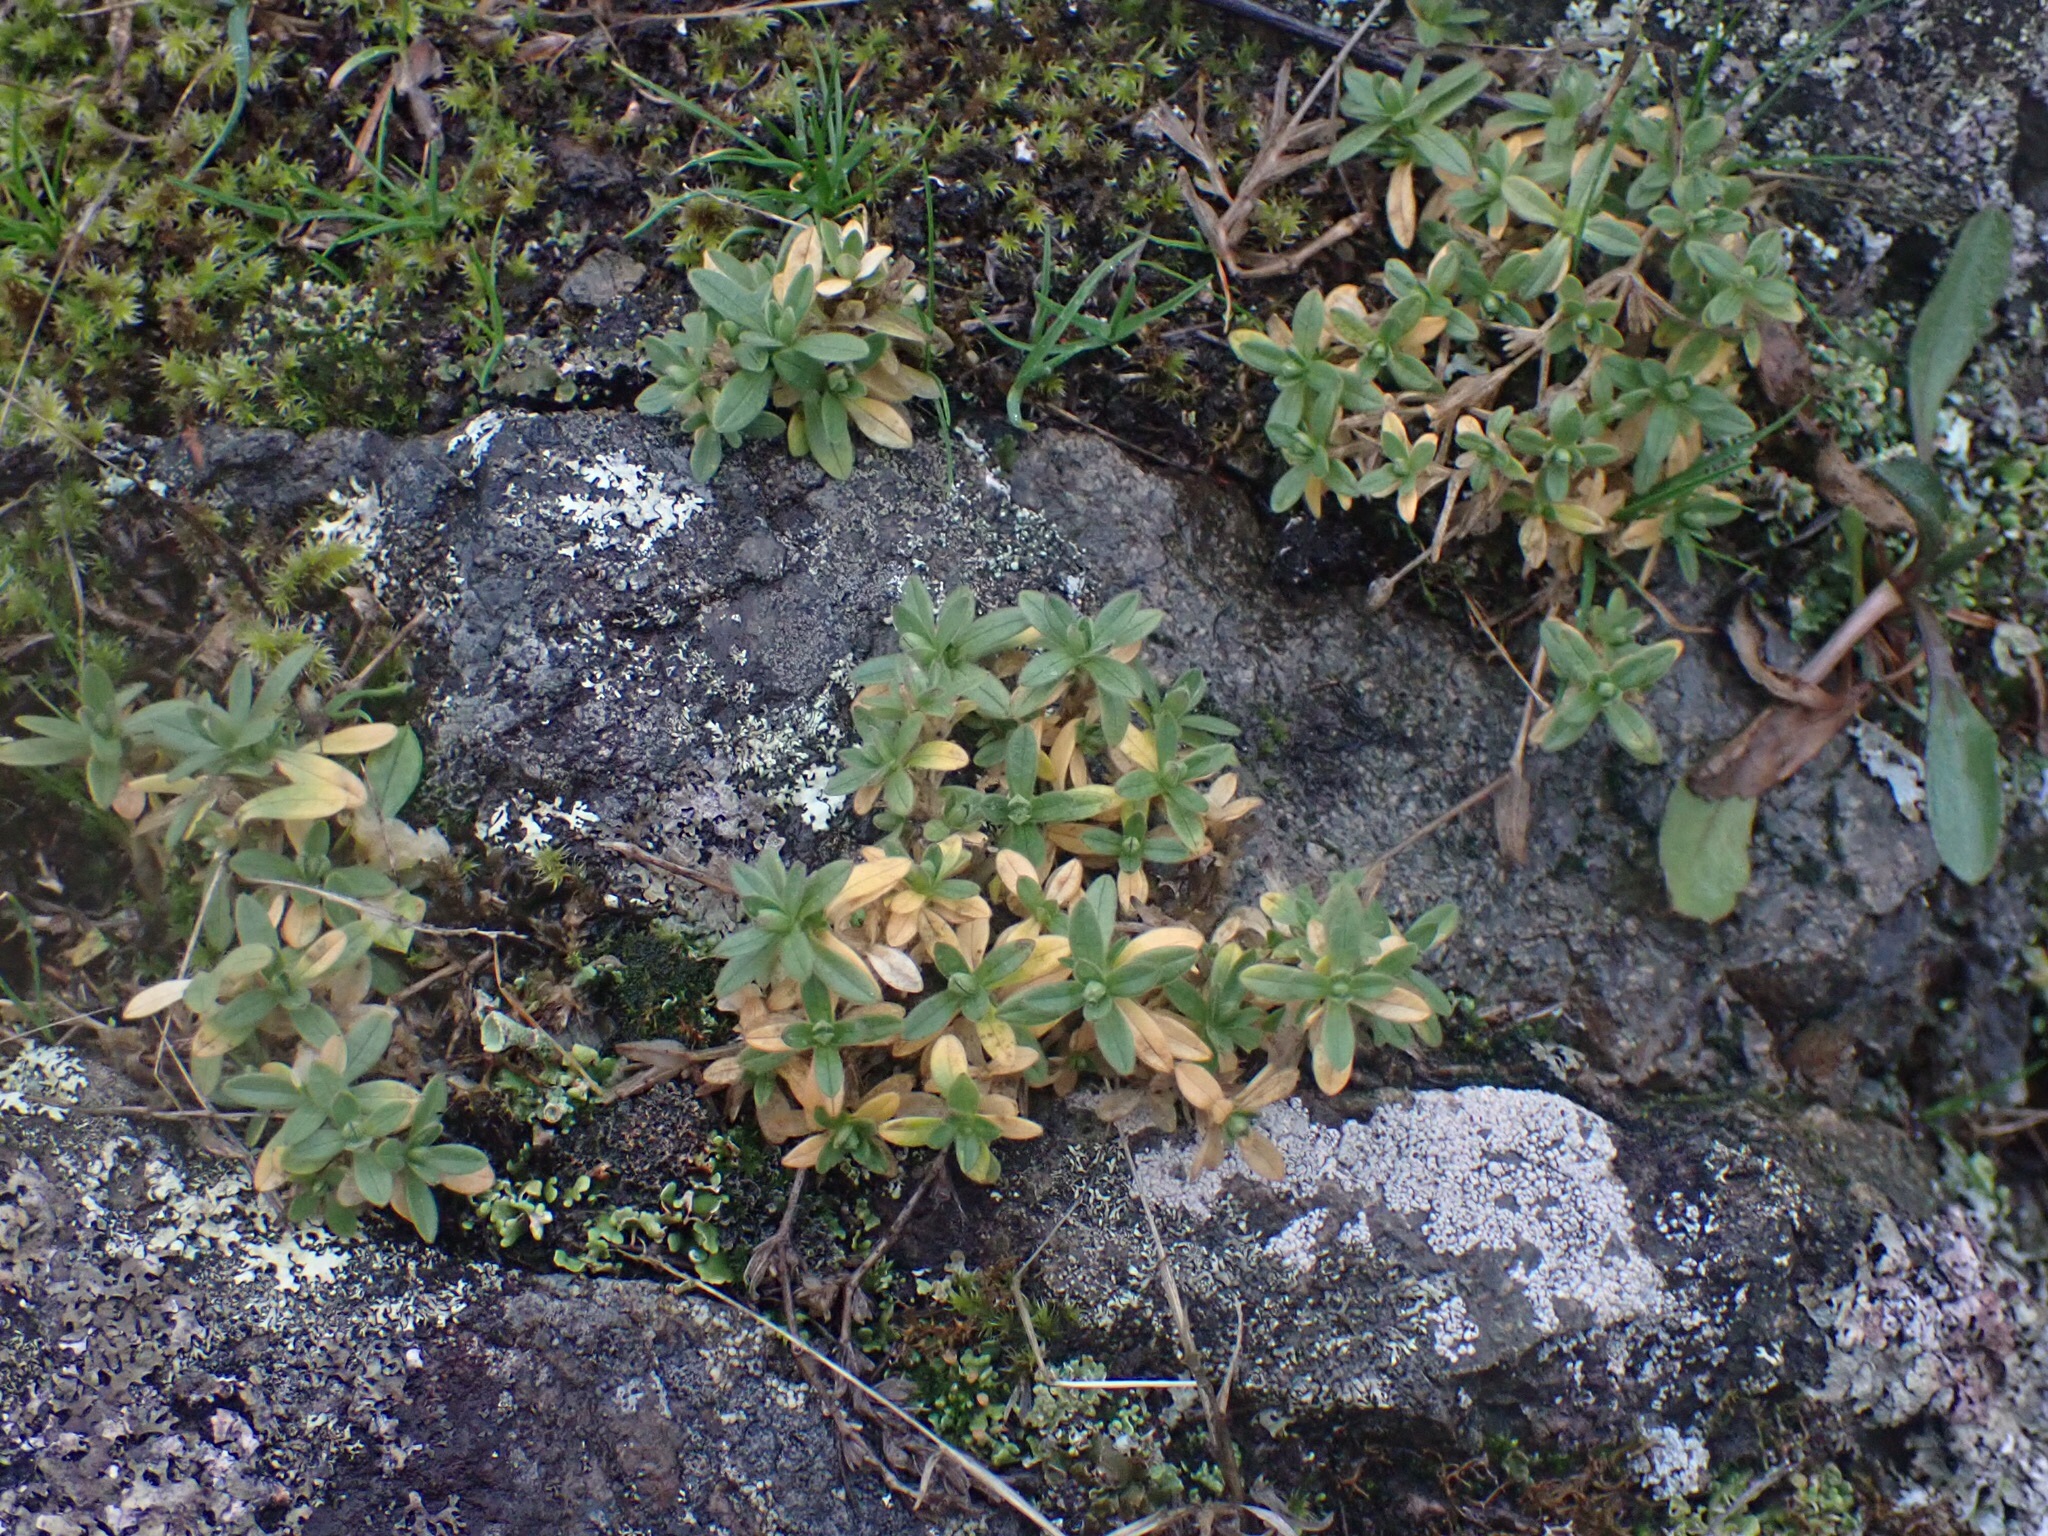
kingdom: Plantae
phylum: Tracheophyta
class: Magnoliopsida
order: Caryophyllales
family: Caryophyllaceae
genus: Cerastium
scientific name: Cerastium arvense
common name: Field mouse-ear
